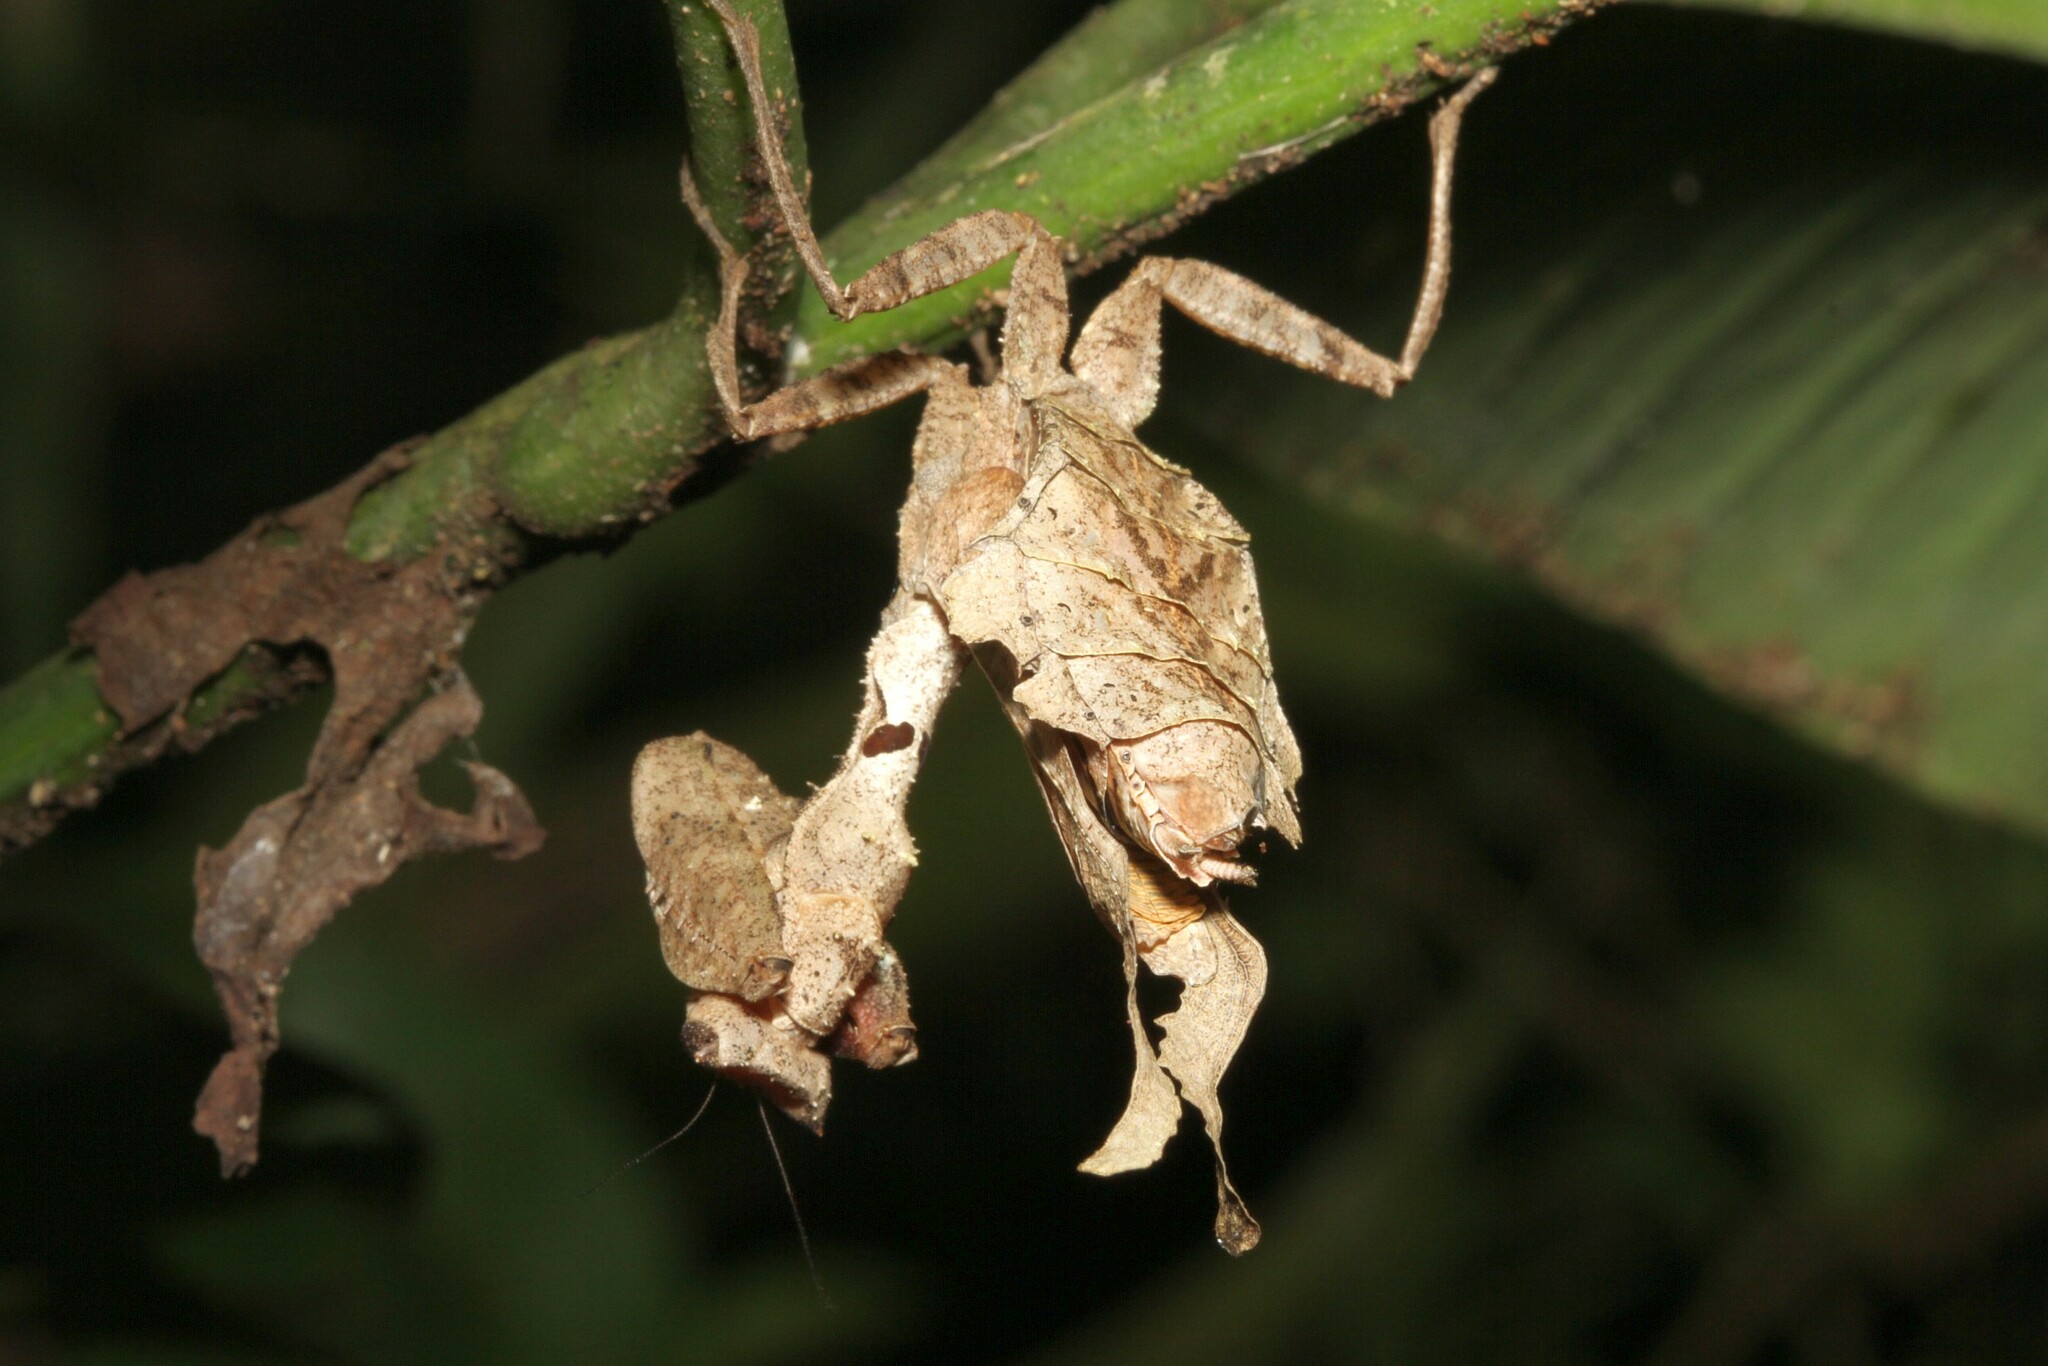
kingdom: Animalia
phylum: Arthropoda
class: Insecta
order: Mantodea
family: Acanthopidae
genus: Acanthops
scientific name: Acanthops erosula
